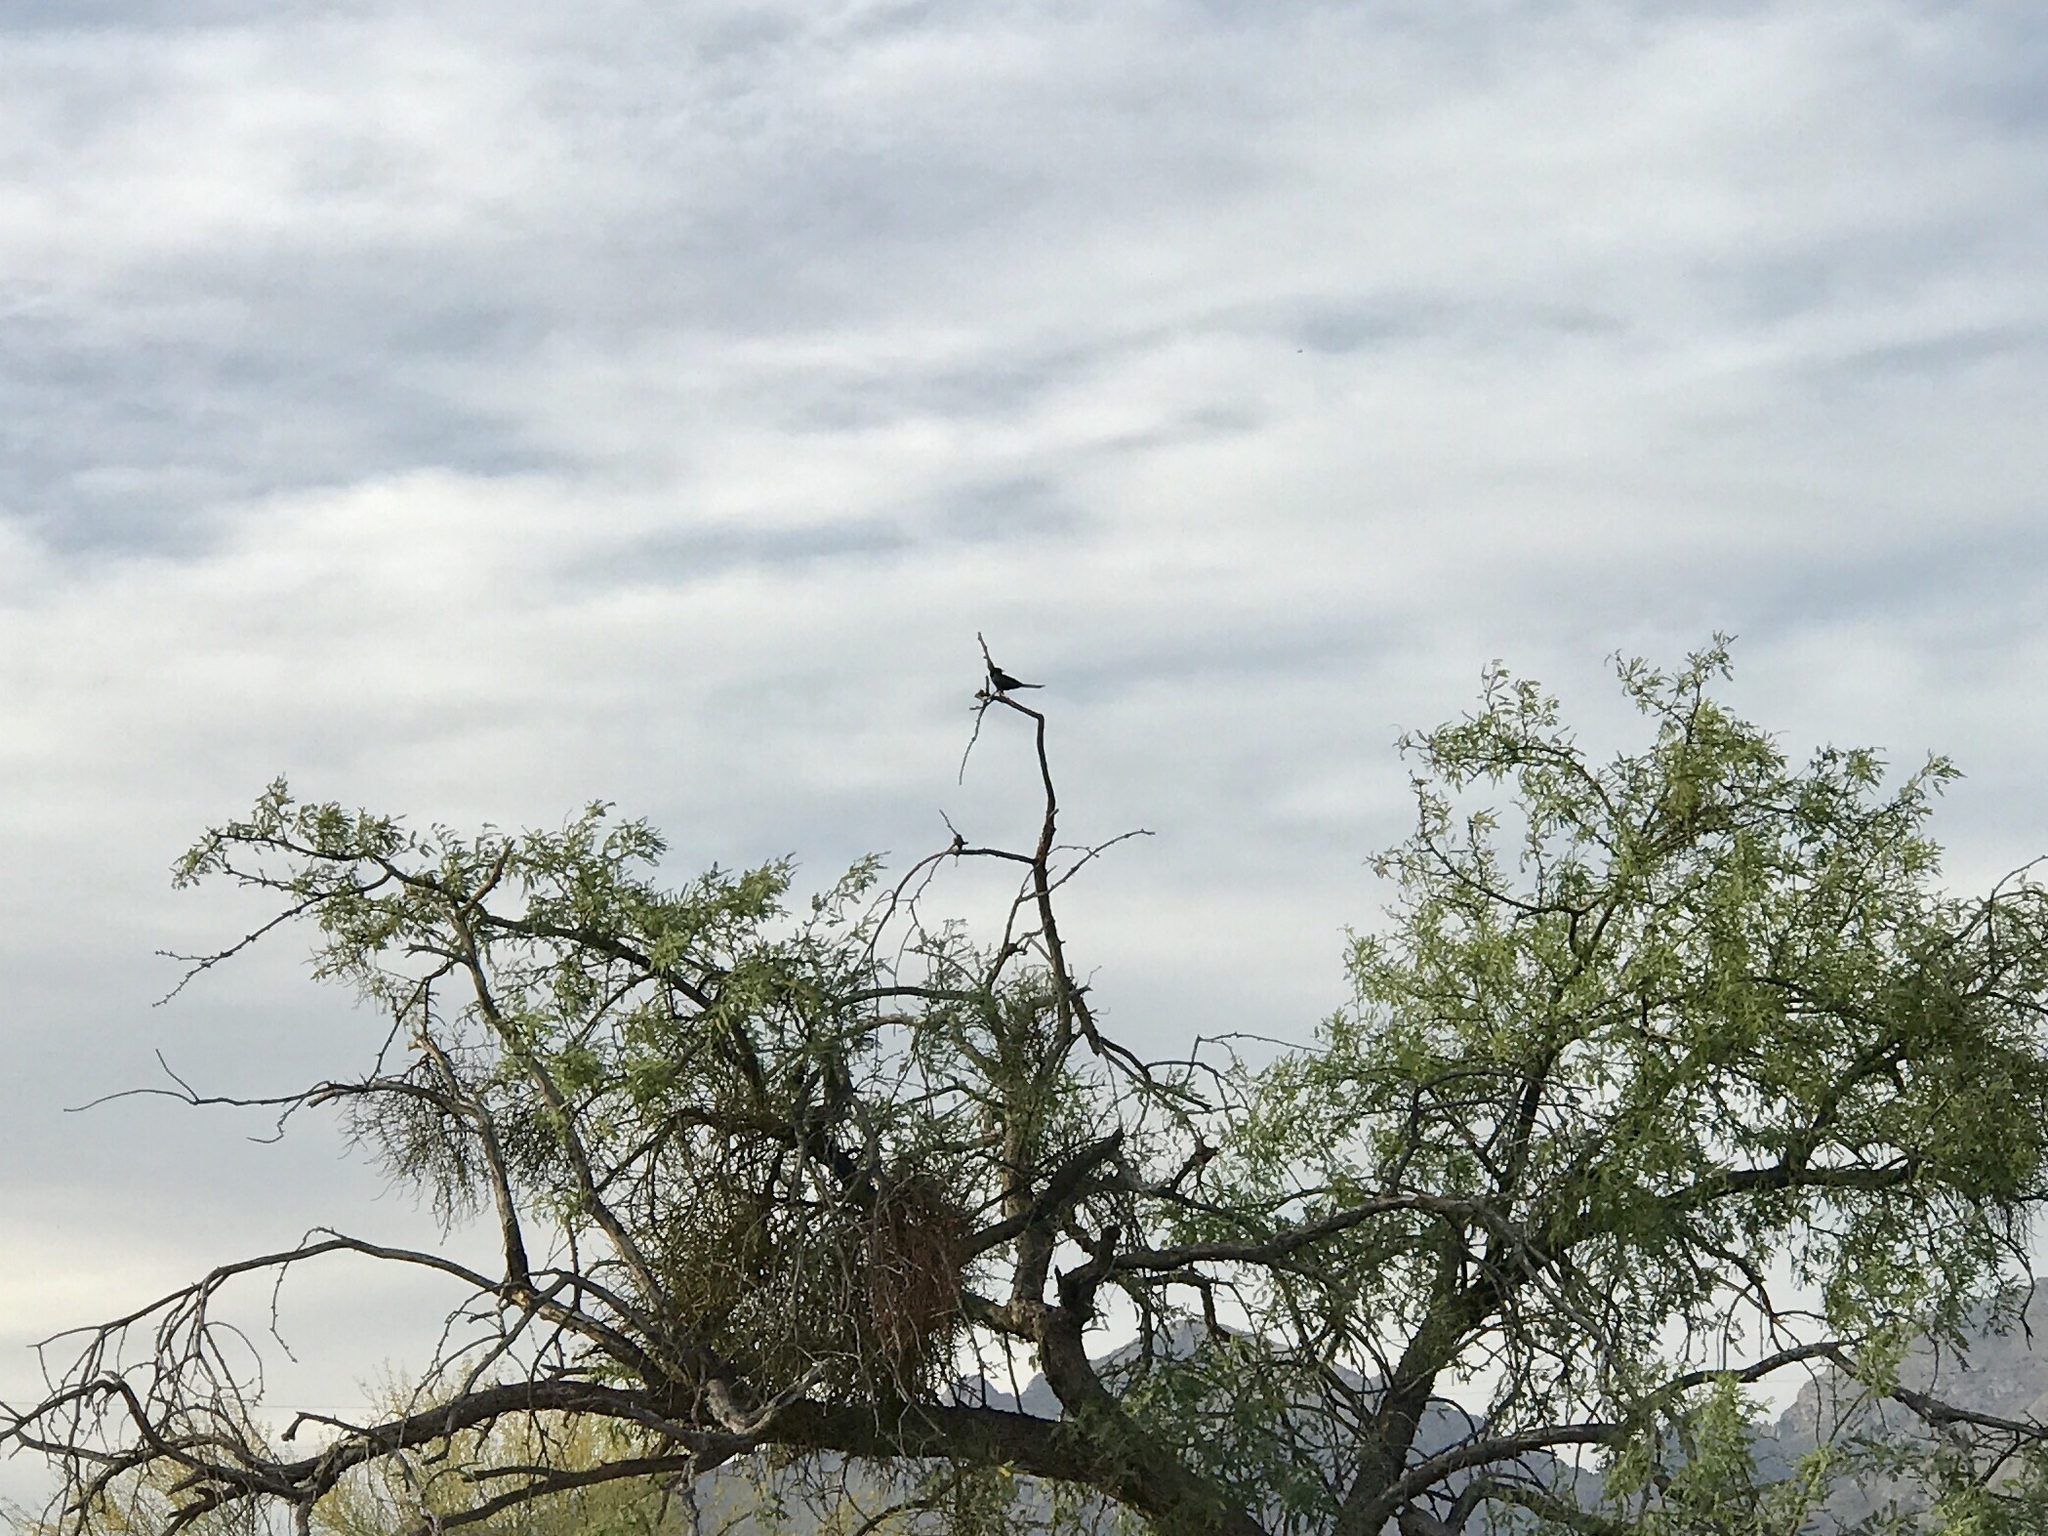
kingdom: Animalia
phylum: Chordata
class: Aves
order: Passeriformes
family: Ptilogonatidae
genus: Phainopepla
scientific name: Phainopepla nitens
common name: Phainopepla
